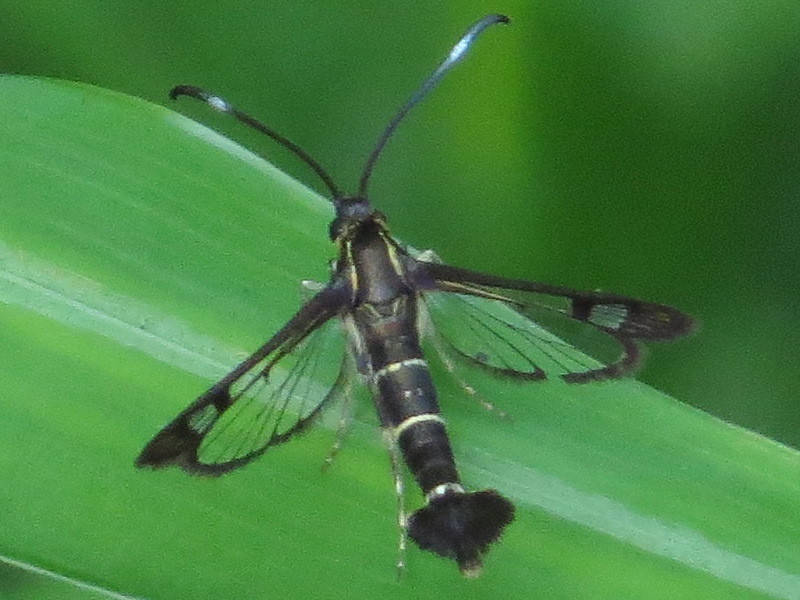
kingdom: Animalia
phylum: Arthropoda
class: Insecta
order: Lepidoptera
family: Sesiidae
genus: Carmenta
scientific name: Carmenta ithacae
